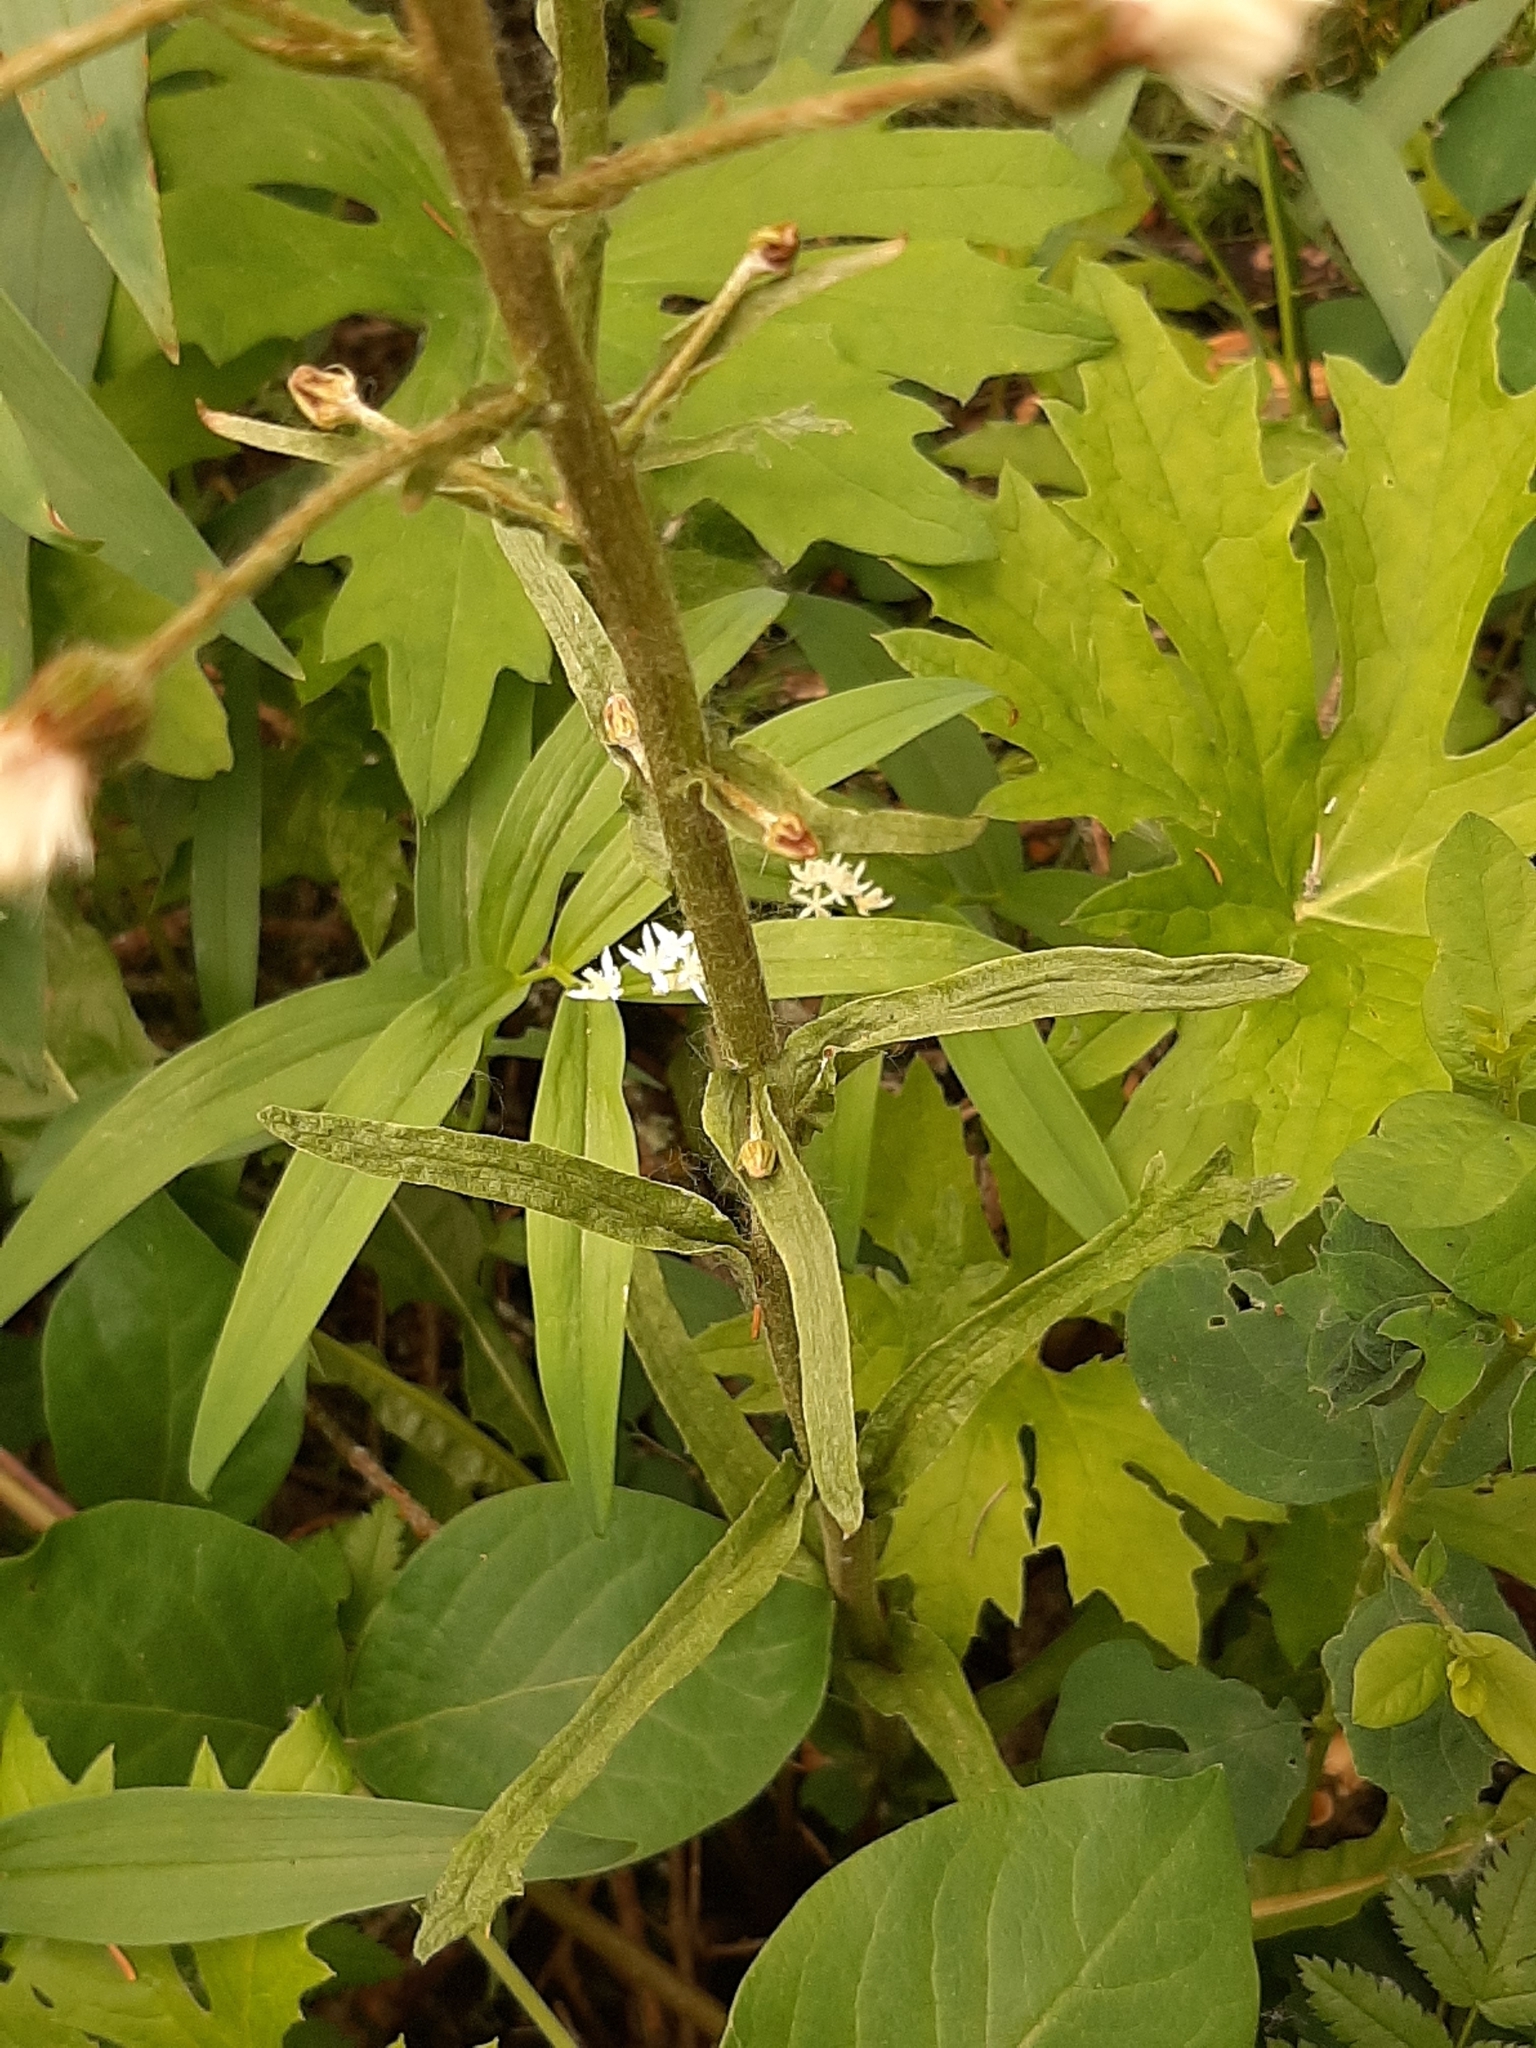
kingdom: Plantae
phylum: Tracheophyta
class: Magnoliopsida
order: Asterales
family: Asteraceae
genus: Petasites
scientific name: Petasites frigidus
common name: Arctic butterbur
